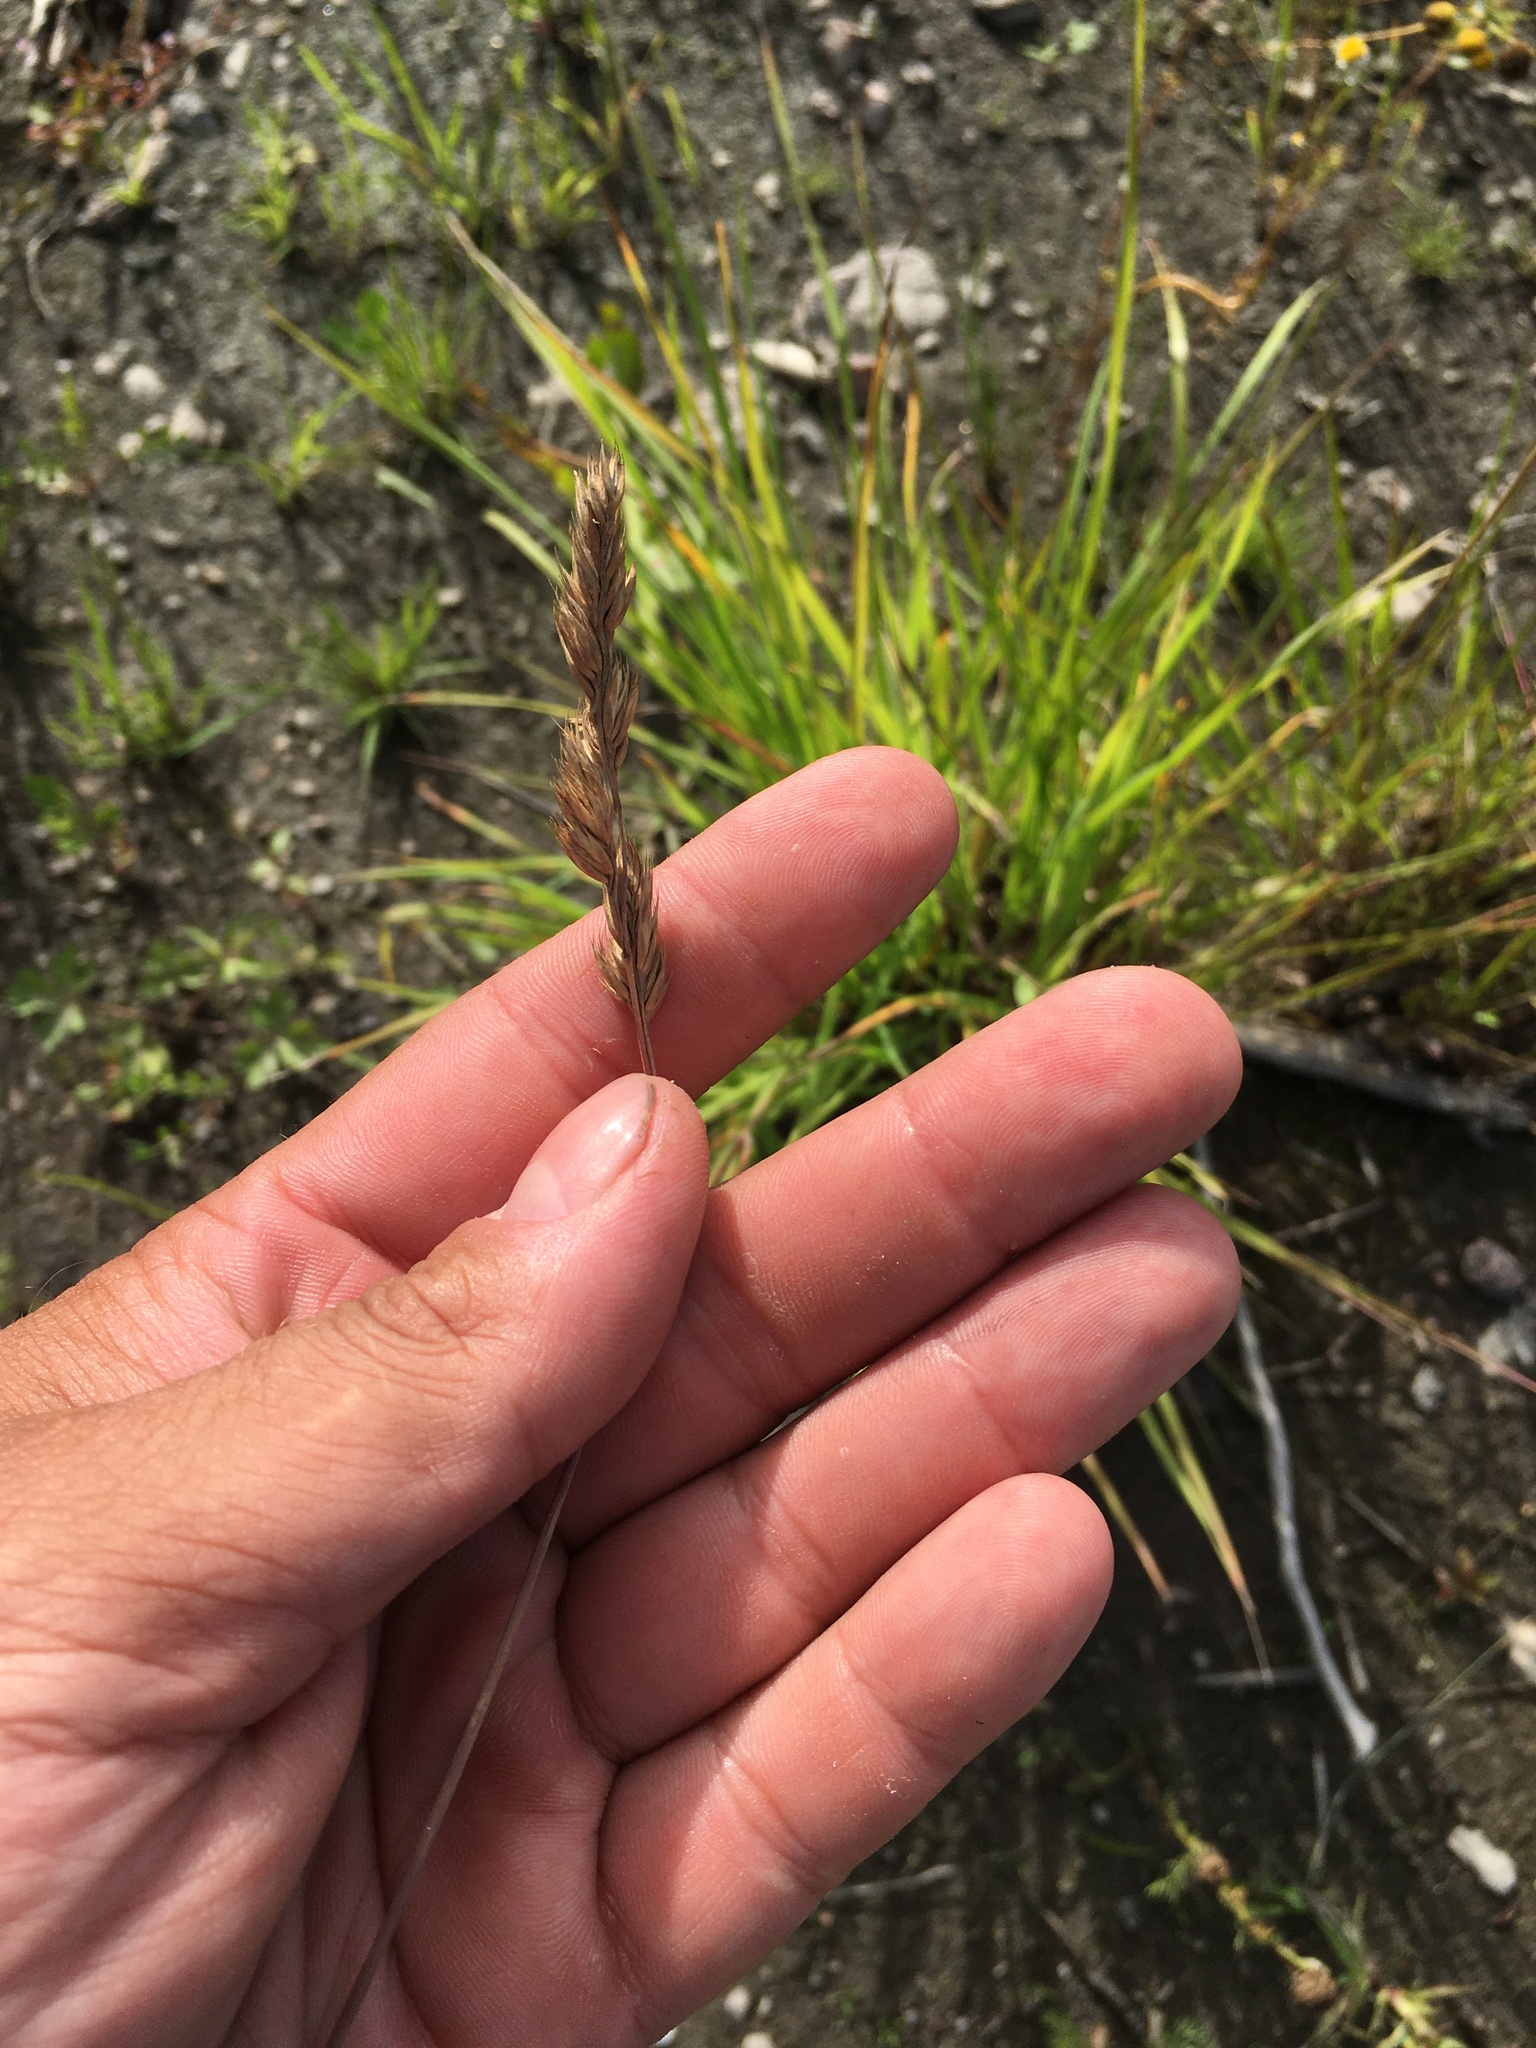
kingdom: Plantae
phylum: Tracheophyta
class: Liliopsida
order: Poales
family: Poaceae
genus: Dactylis
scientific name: Dactylis glomerata
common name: Orchardgrass
